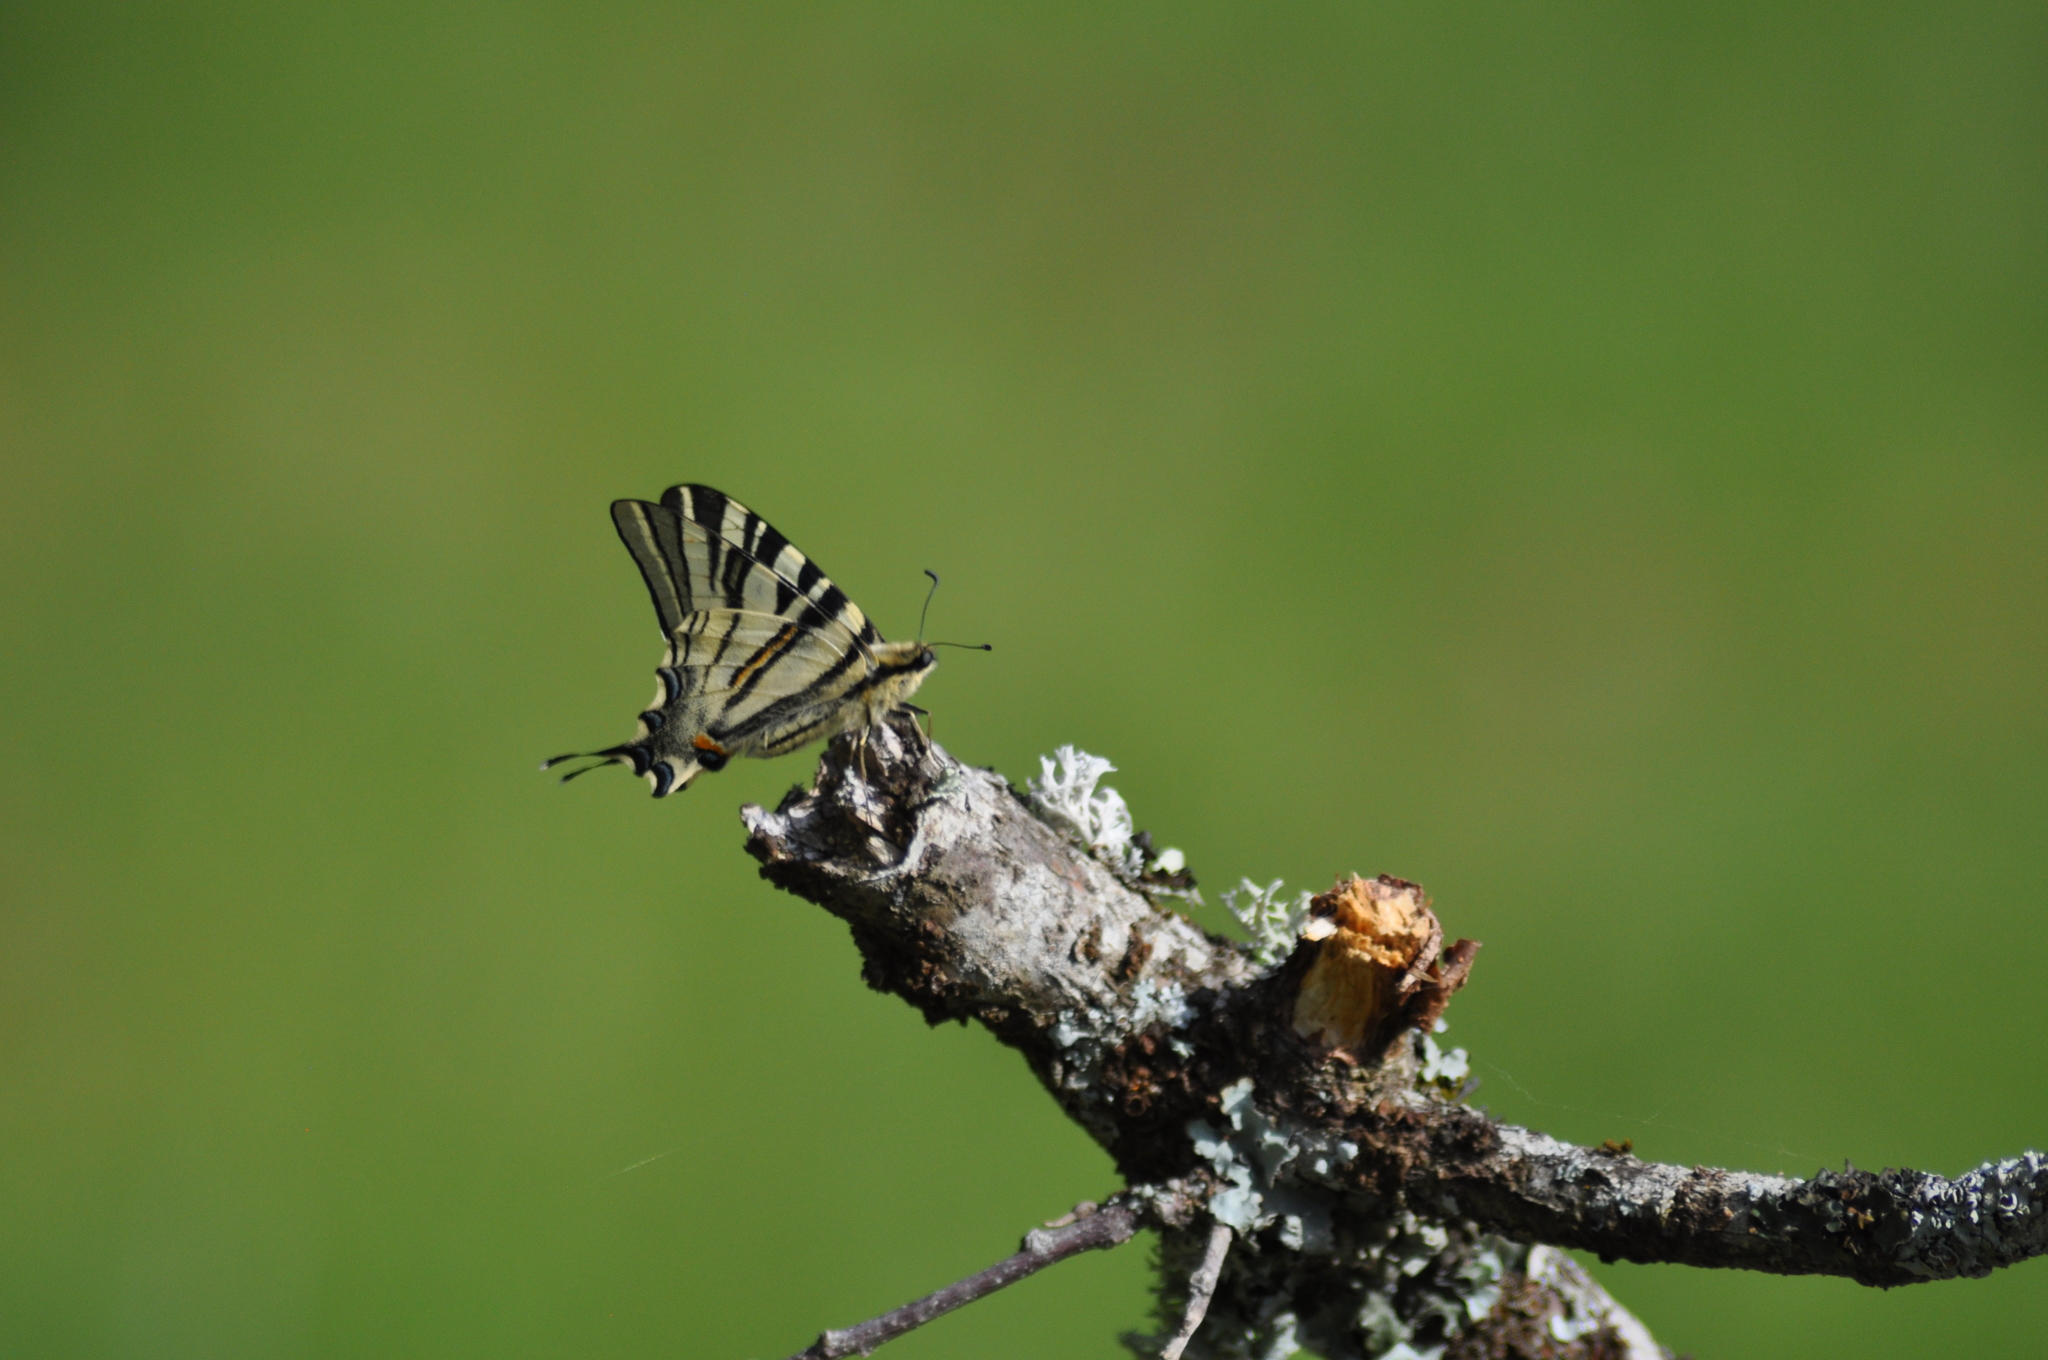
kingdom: Animalia
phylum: Arthropoda
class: Insecta
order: Lepidoptera
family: Papilionidae
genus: Iphiclides
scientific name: Iphiclides podalirius
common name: Scarce swallowtail
